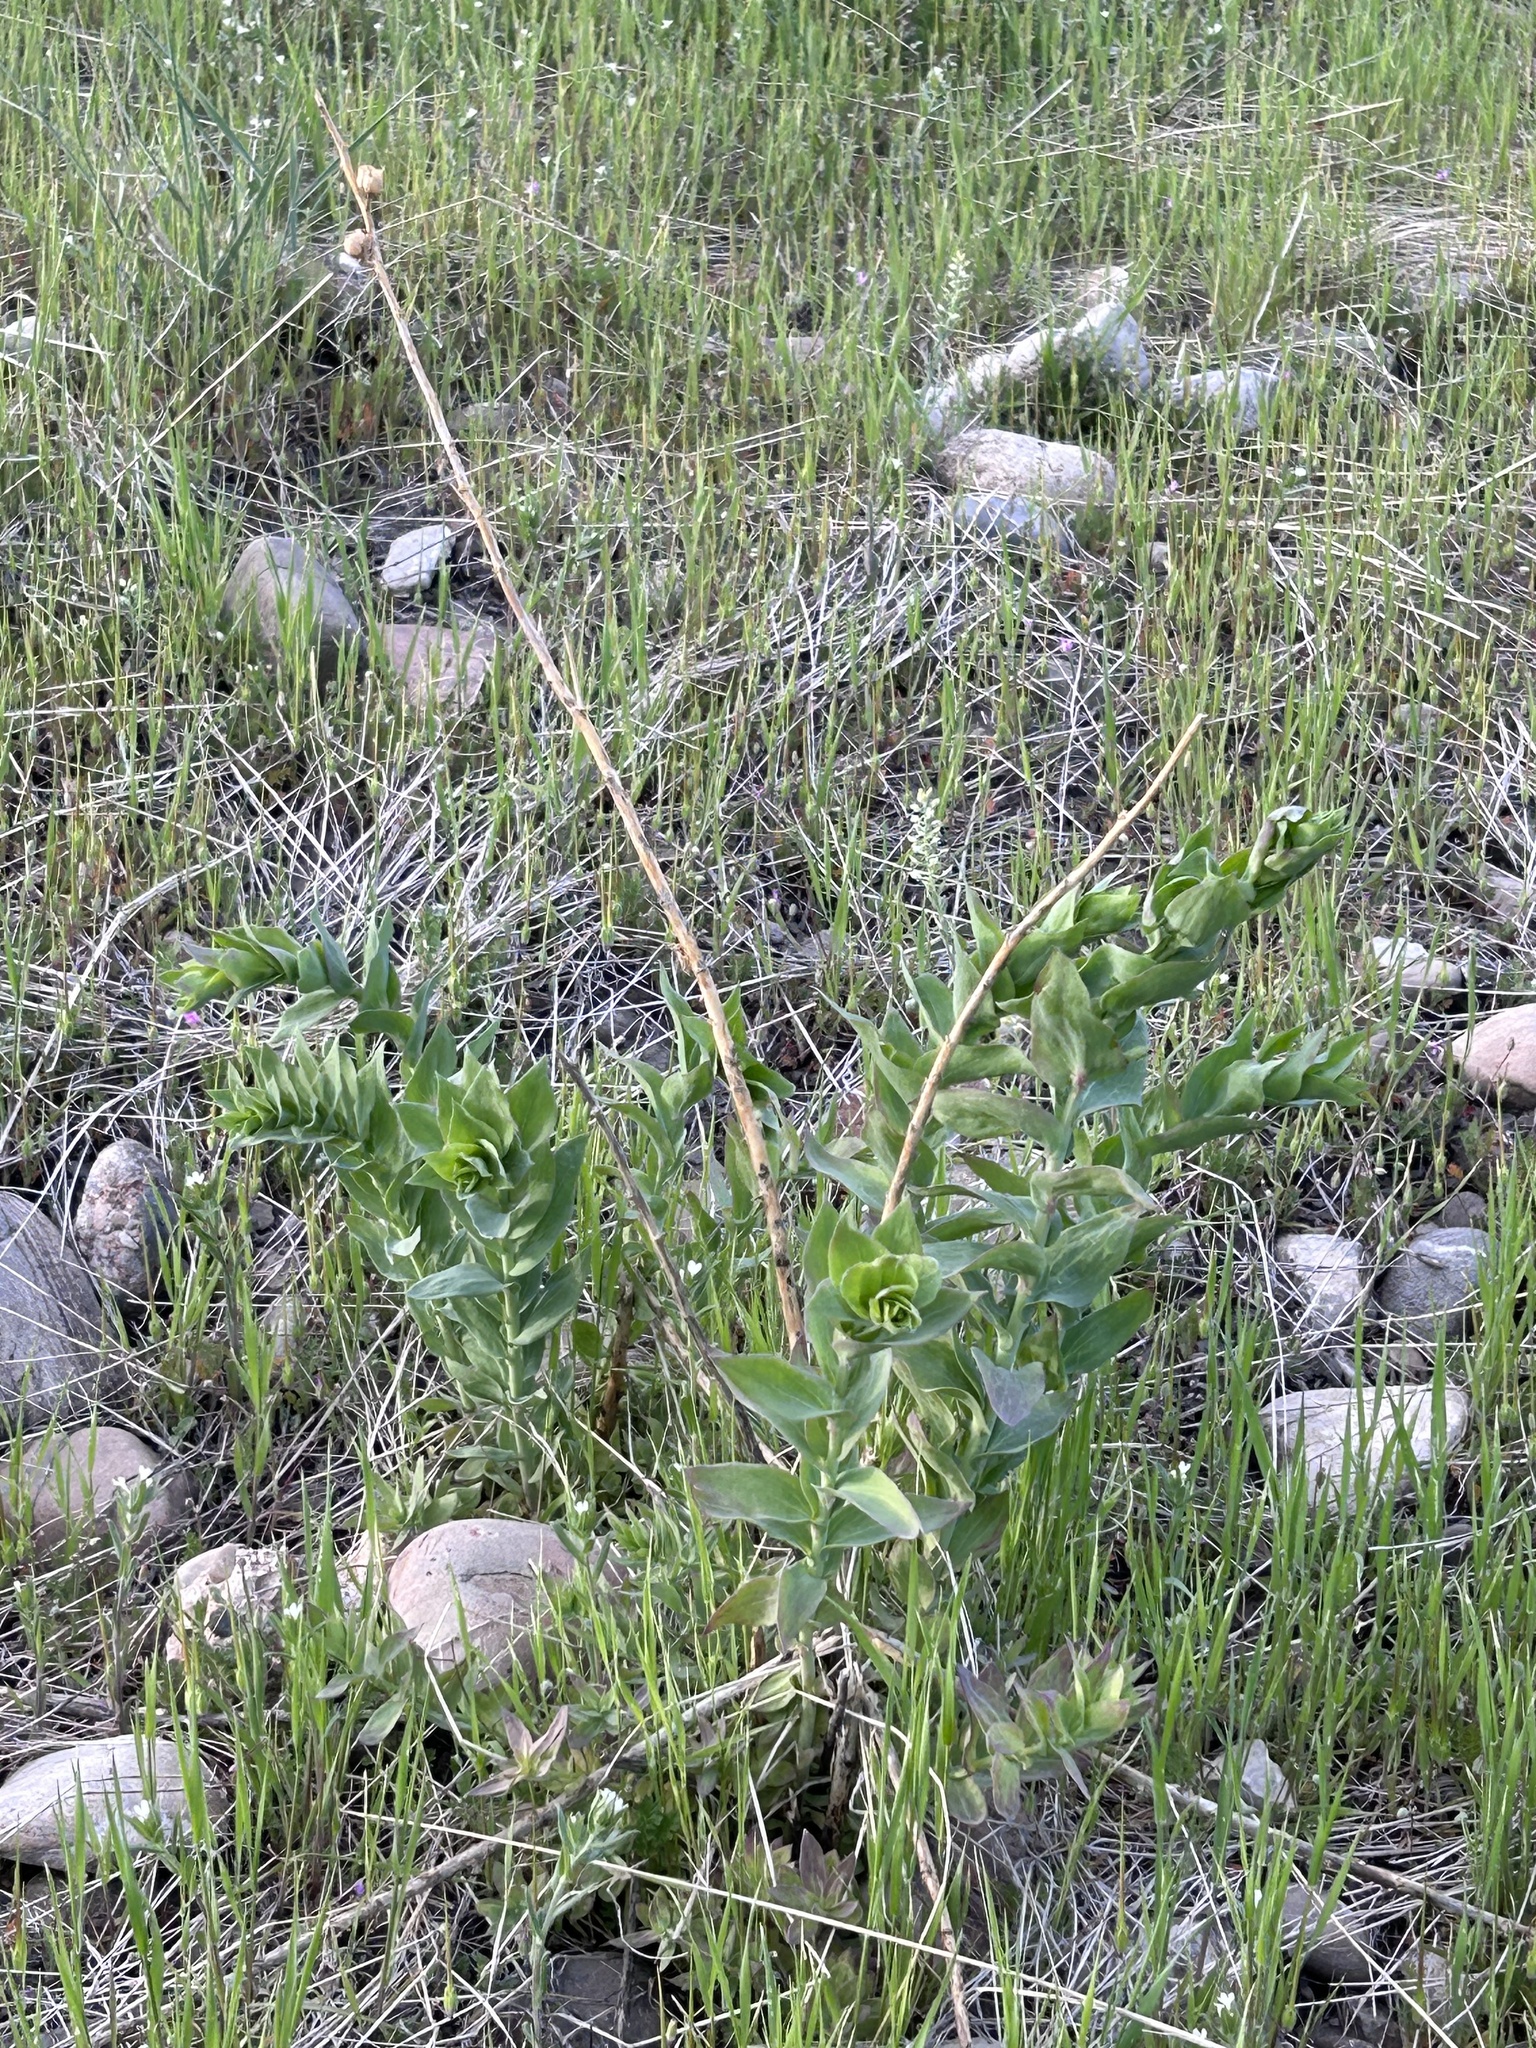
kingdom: Plantae
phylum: Tracheophyta
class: Magnoliopsida
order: Lamiales
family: Plantaginaceae
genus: Linaria
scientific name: Linaria dalmatica
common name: Dalmatian toadflax
